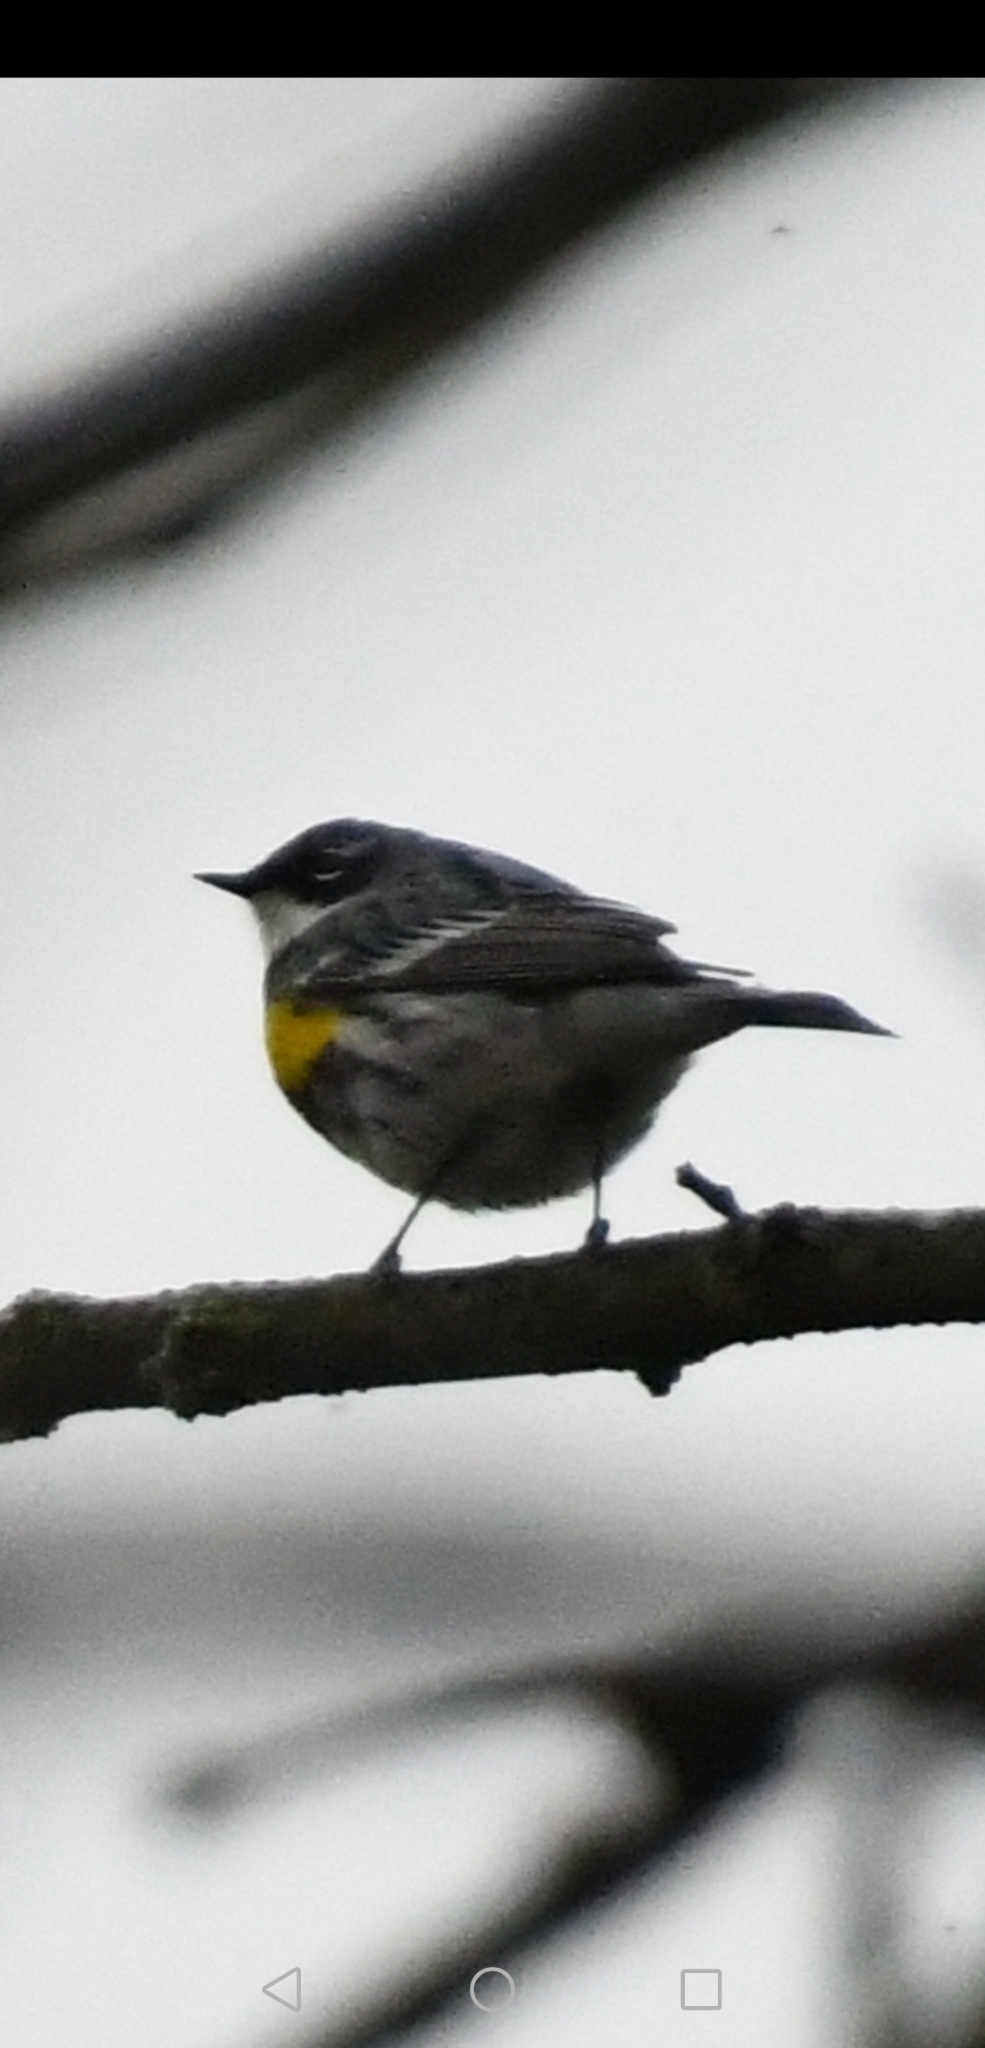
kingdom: Animalia
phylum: Chordata
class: Aves
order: Passeriformes
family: Parulidae
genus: Setophaga
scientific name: Setophaga coronata
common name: Myrtle warbler
